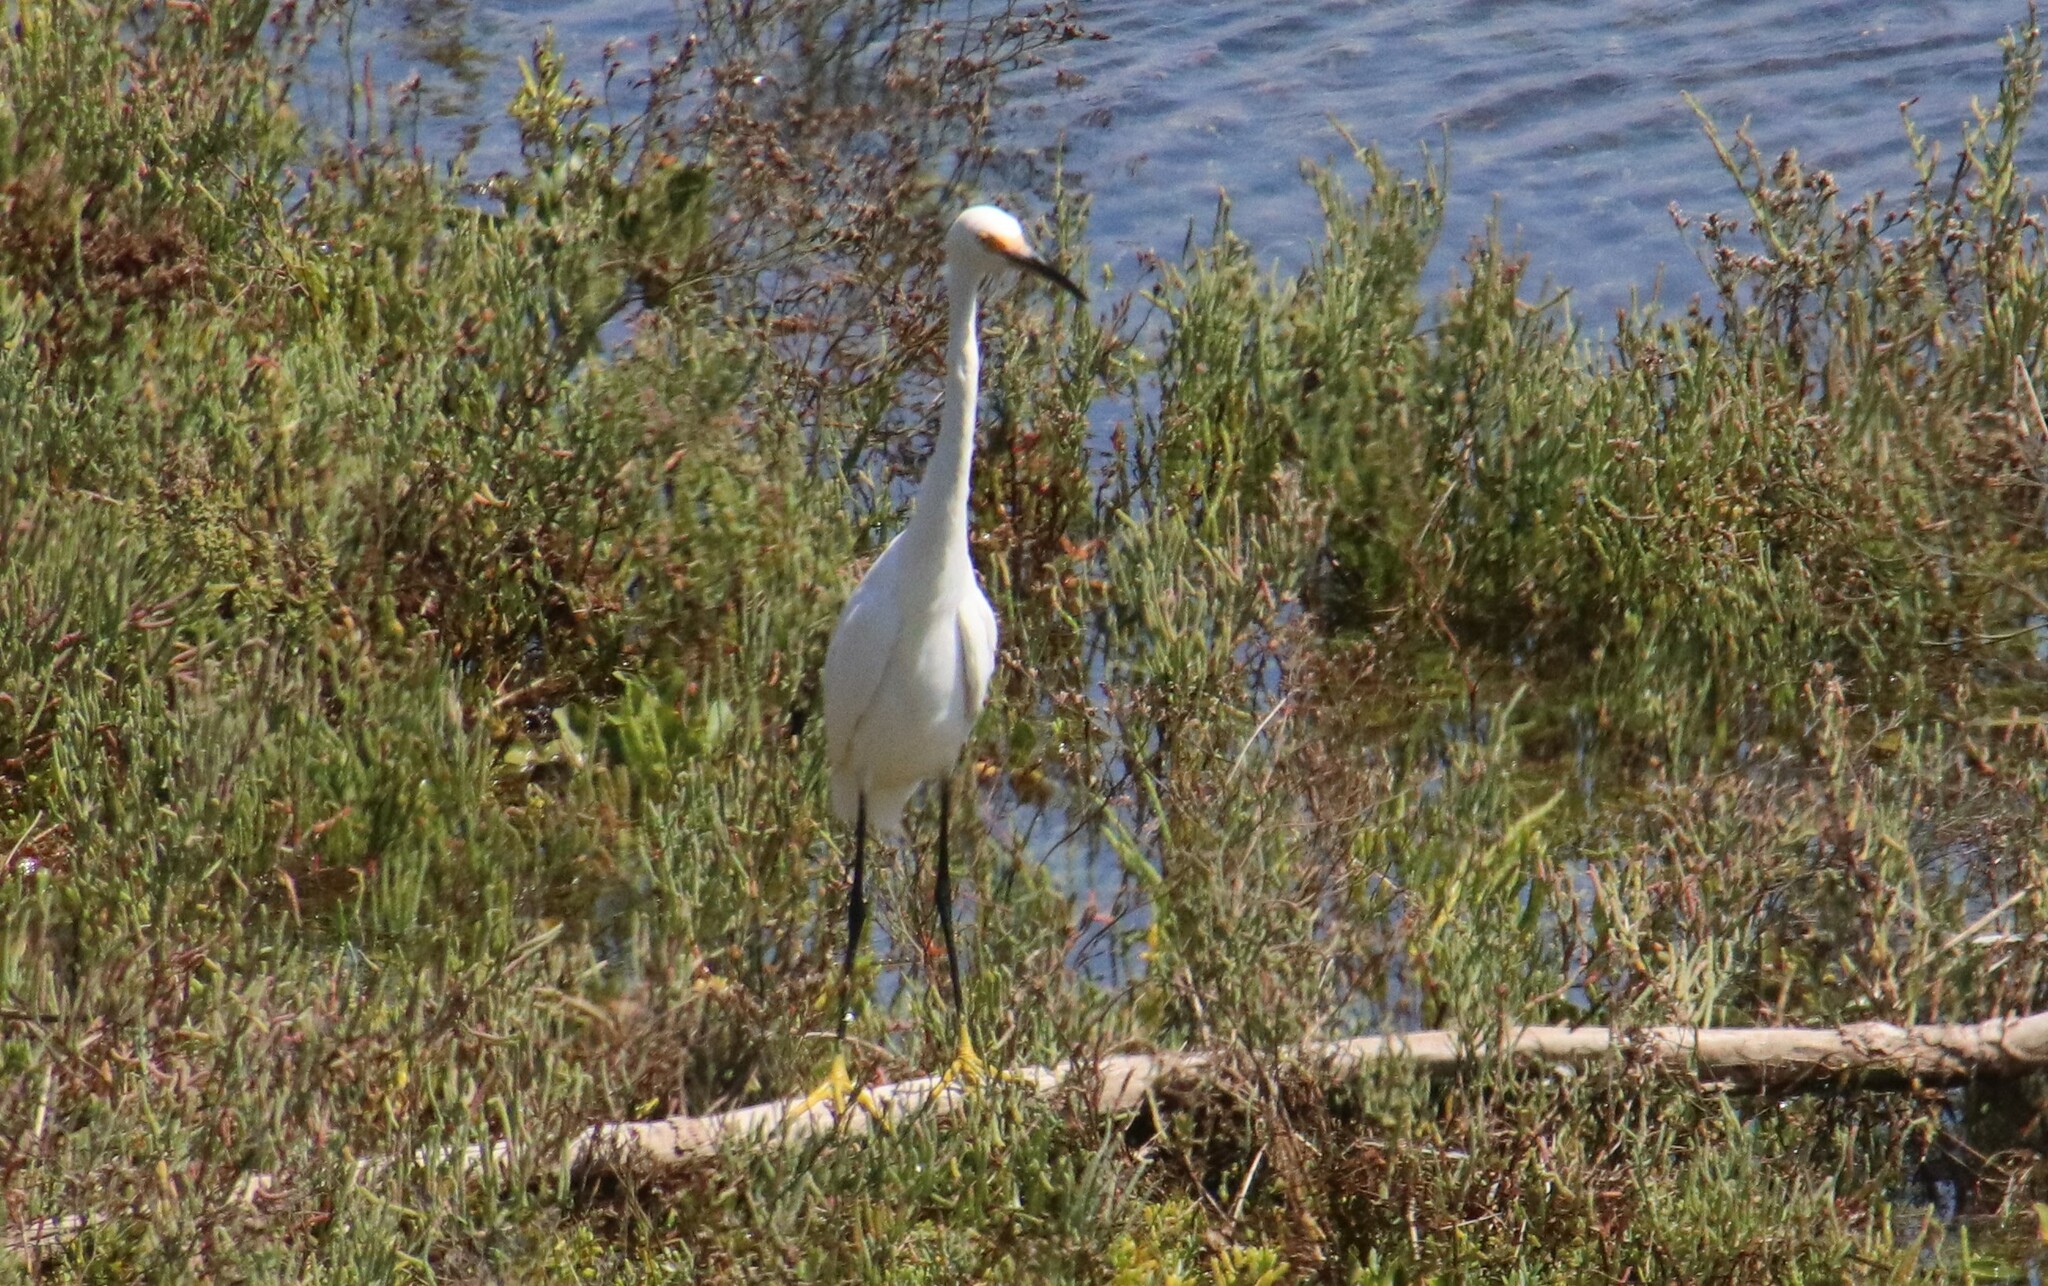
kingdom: Animalia
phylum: Chordata
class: Aves
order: Pelecaniformes
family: Ardeidae
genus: Egretta
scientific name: Egretta thula
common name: Snowy egret
